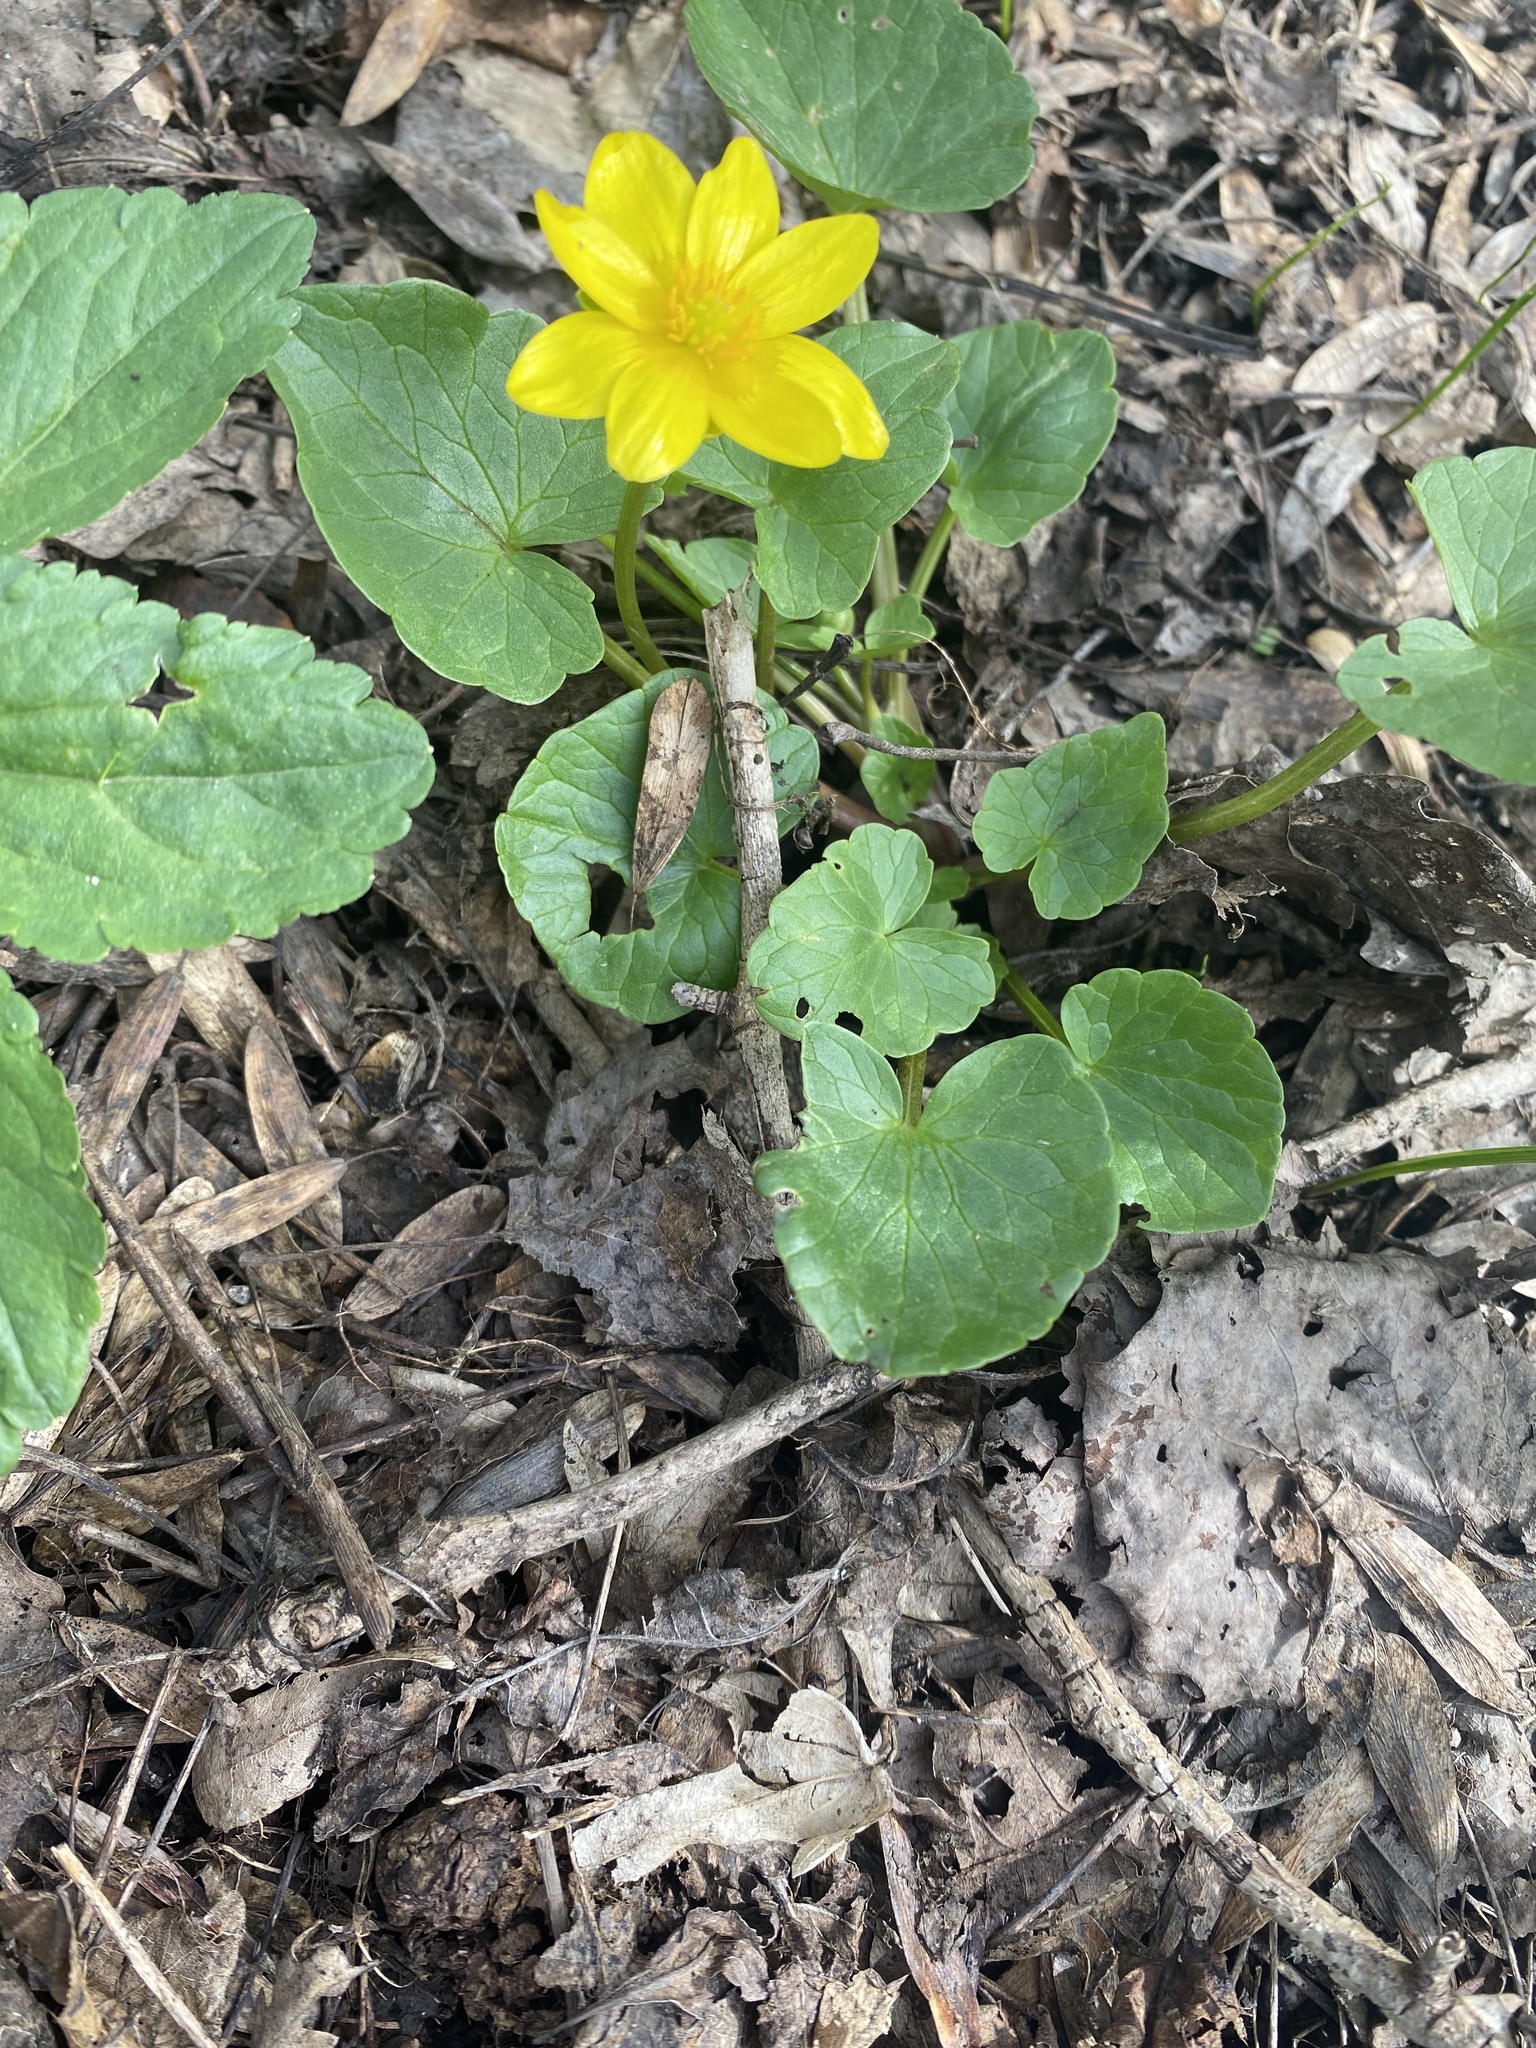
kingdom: Plantae
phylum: Tracheophyta
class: Magnoliopsida
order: Ranunculales
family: Ranunculaceae
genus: Ficaria
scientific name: Ficaria verna
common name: Lesser celandine
